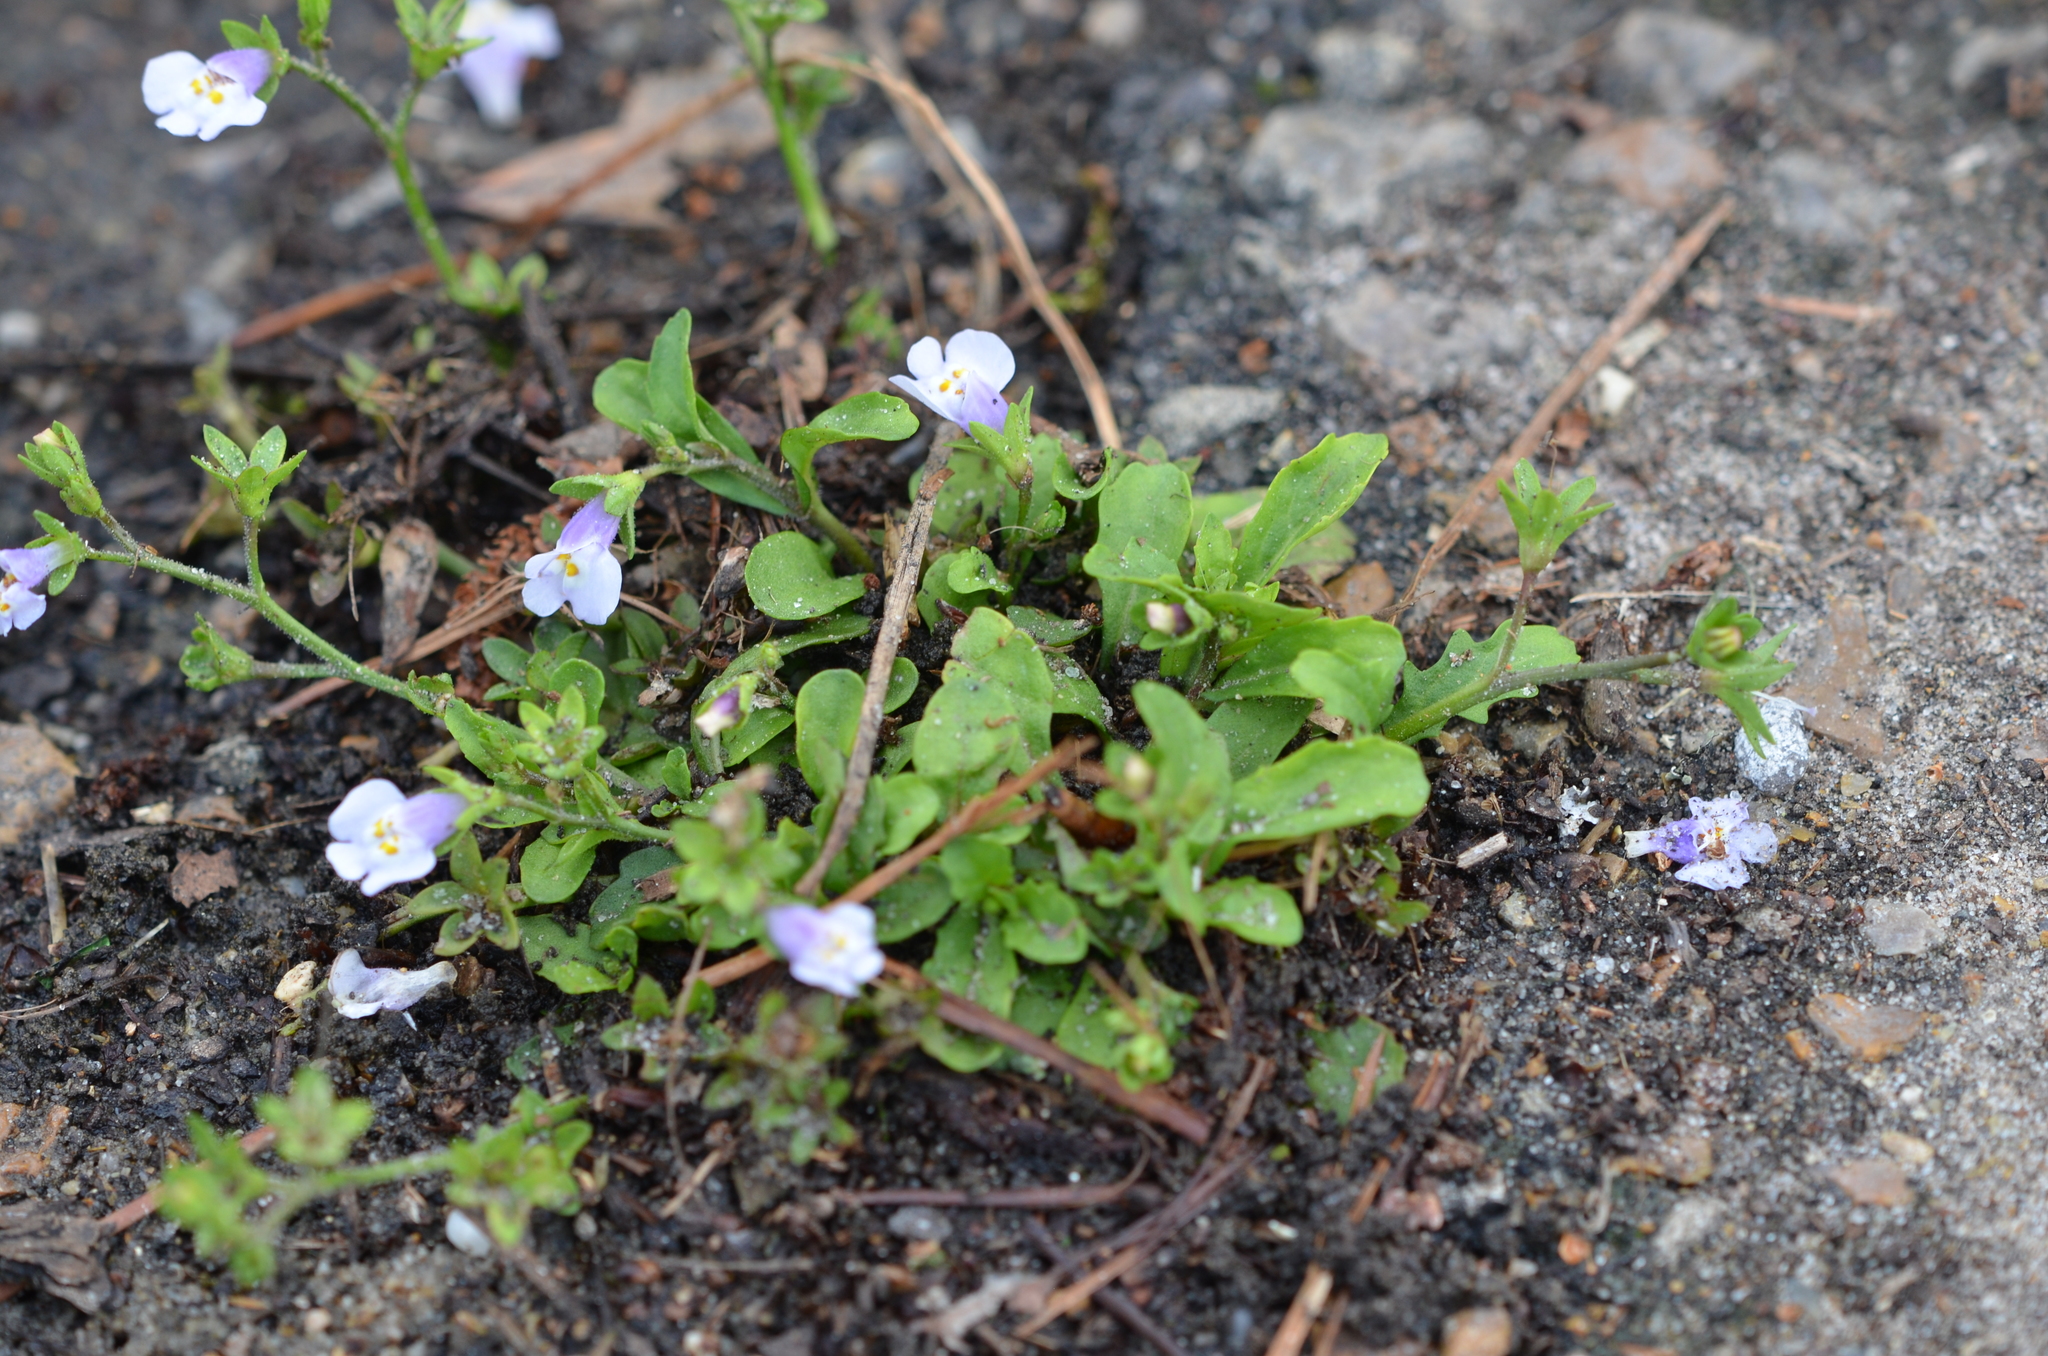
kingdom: Plantae
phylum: Tracheophyta
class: Magnoliopsida
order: Lamiales
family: Mazaceae
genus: Mazus
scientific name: Mazus pumilus
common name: Japanese mazus
